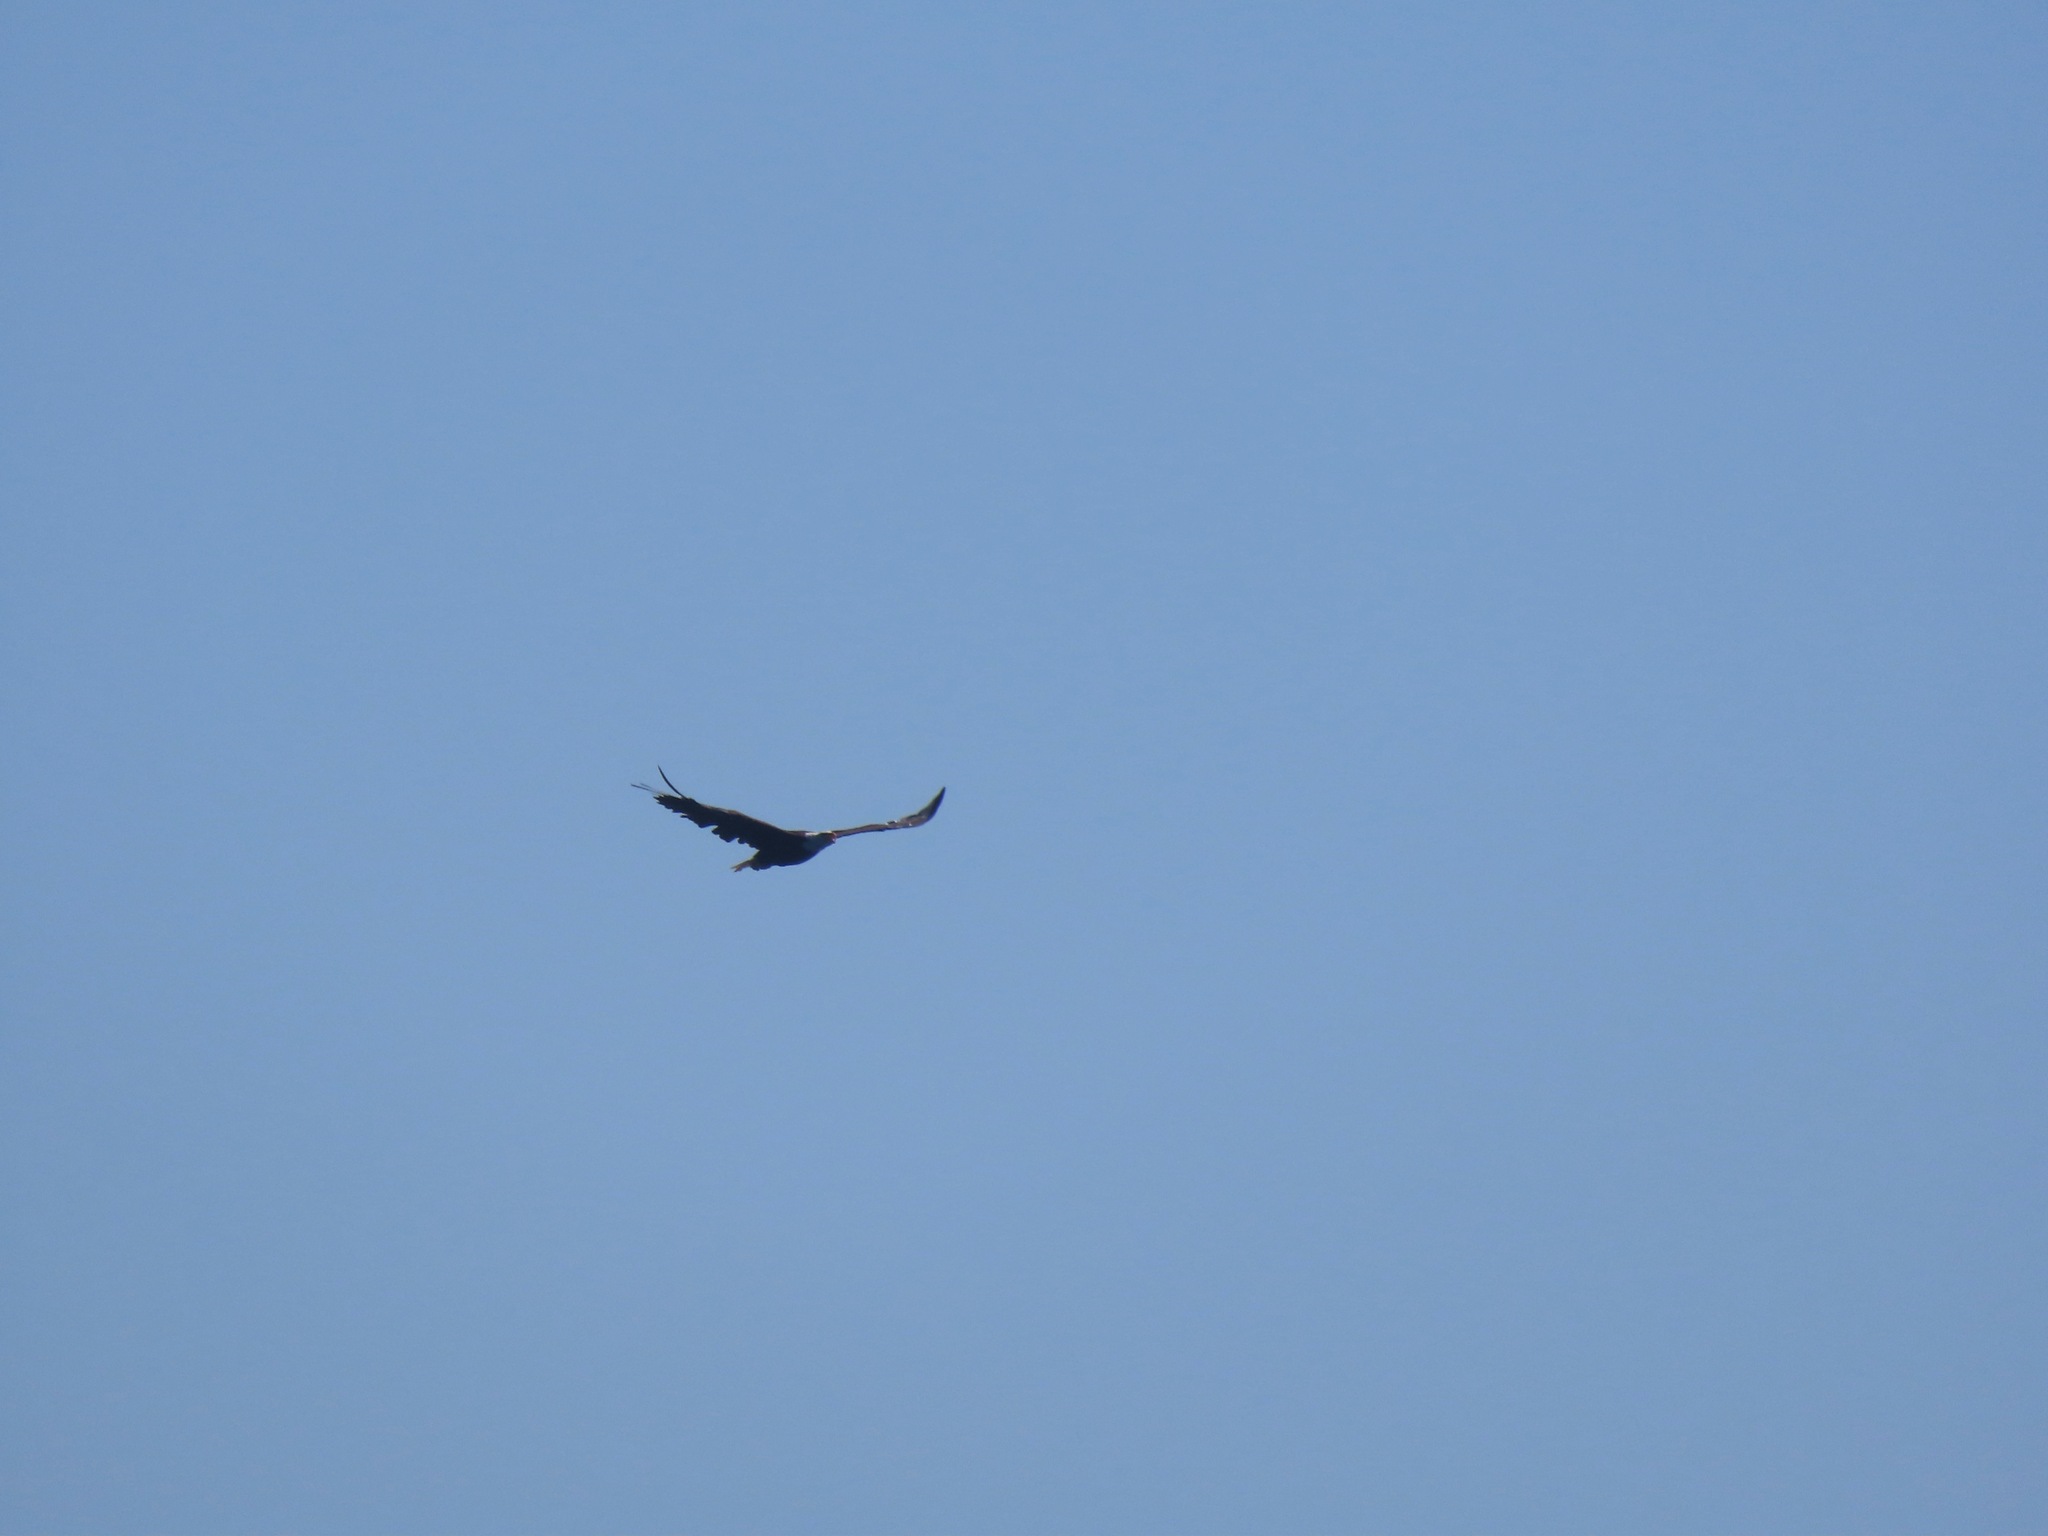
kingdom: Animalia
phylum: Chordata
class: Aves
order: Accipitriformes
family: Accipitridae
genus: Haliaeetus
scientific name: Haliaeetus leucocephalus
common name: Bald eagle
